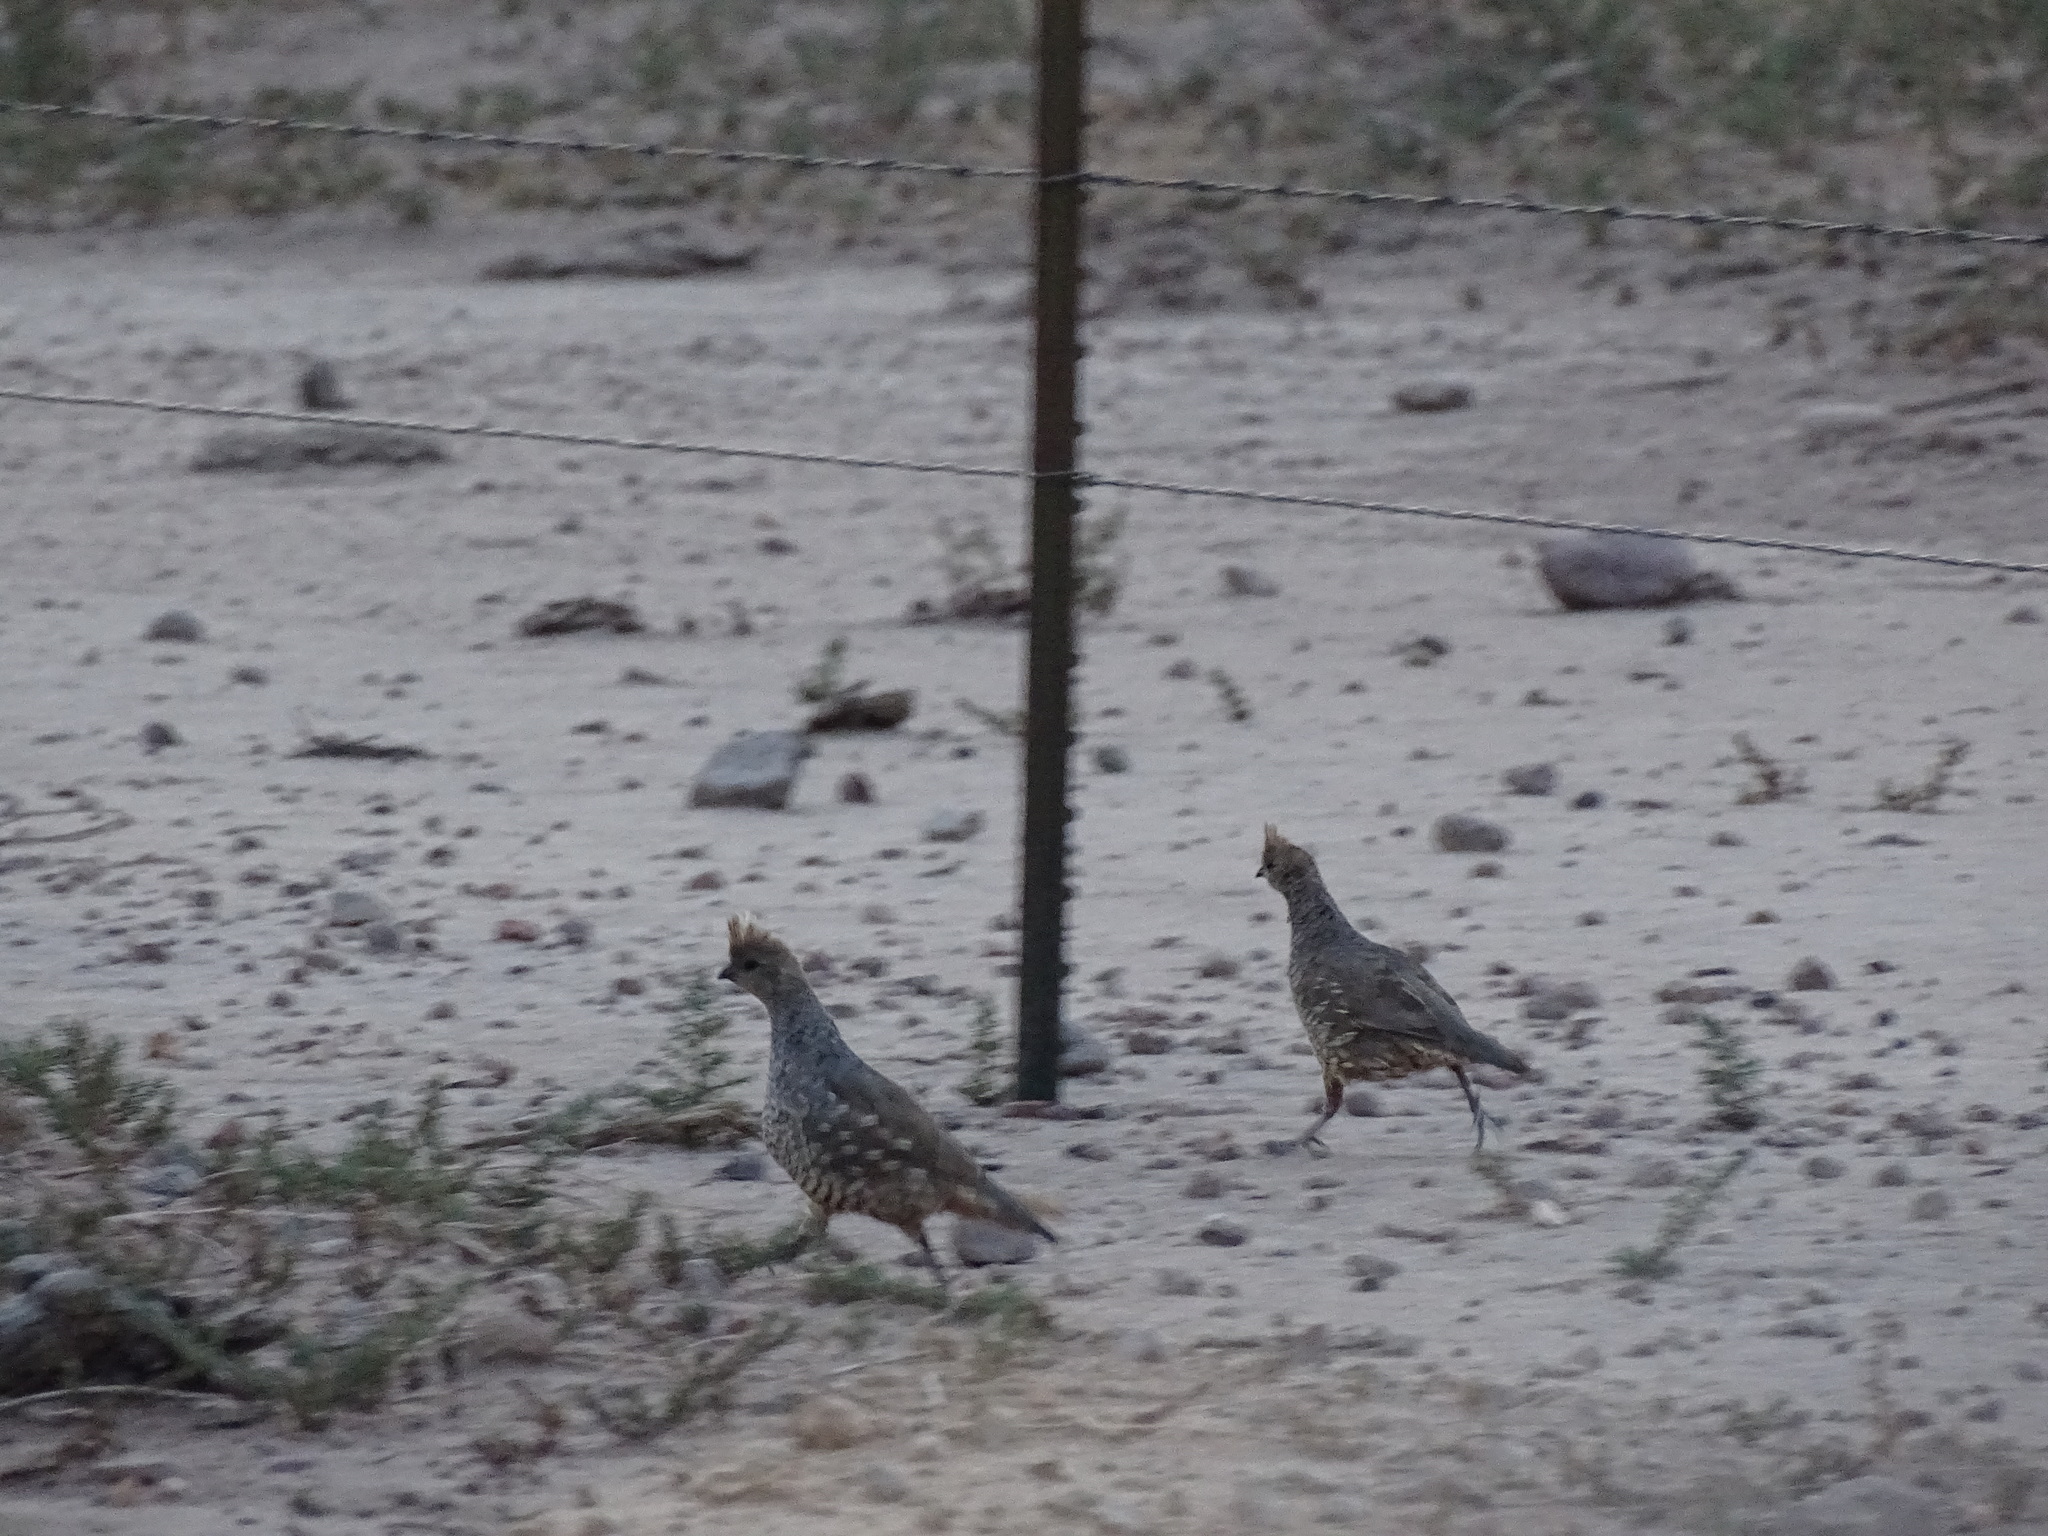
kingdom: Animalia
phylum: Chordata
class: Aves
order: Galliformes
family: Odontophoridae
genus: Callipepla
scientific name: Callipepla squamata
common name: Scaled quail
